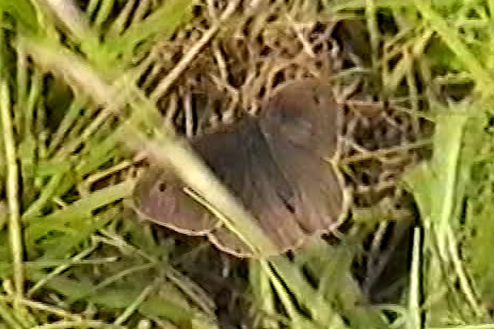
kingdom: Animalia
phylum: Arthropoda
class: Insecta
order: Lepidoptera
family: Nymphalidae
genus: Maniola
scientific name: Maniola jurtina
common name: Meadow brown
